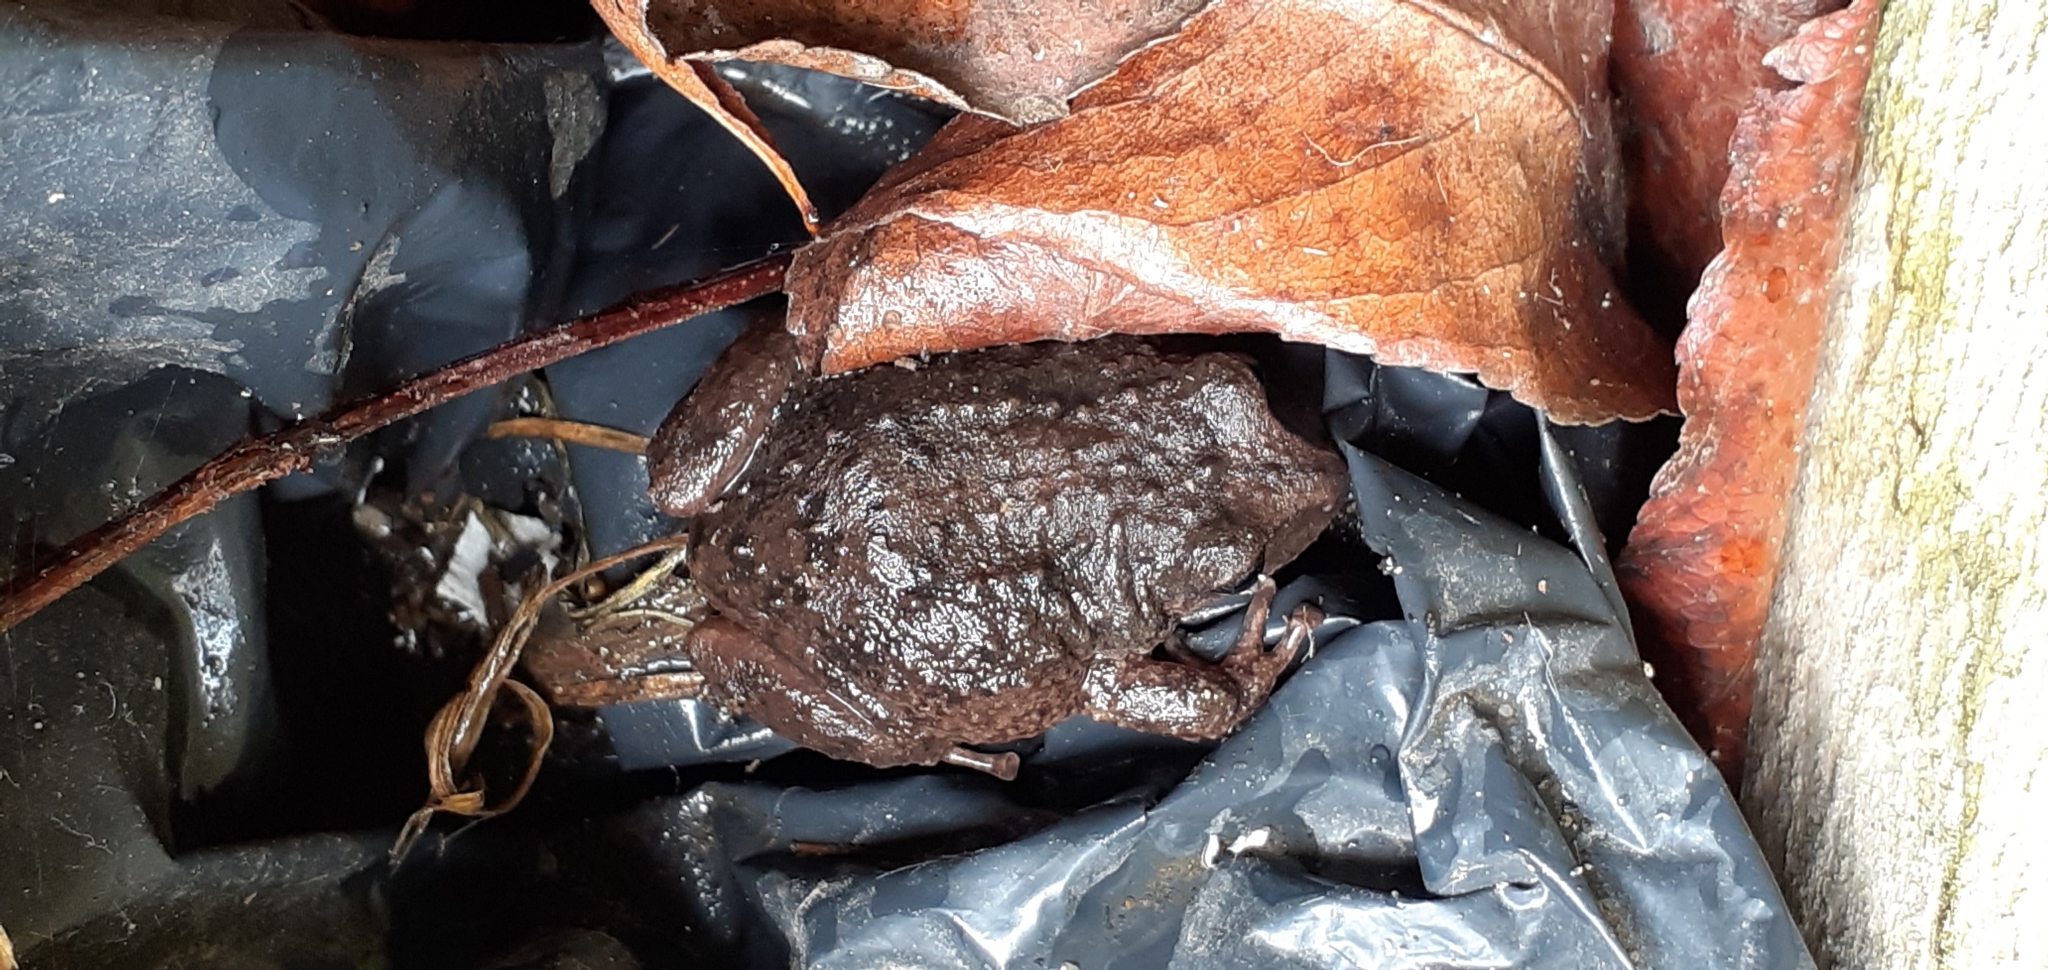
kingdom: Animalia
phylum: Chordata
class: Amphibia
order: Anura
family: Craugastoridae
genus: Pristimantis
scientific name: Pristimantis unistrigatus
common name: Striped robber frog
